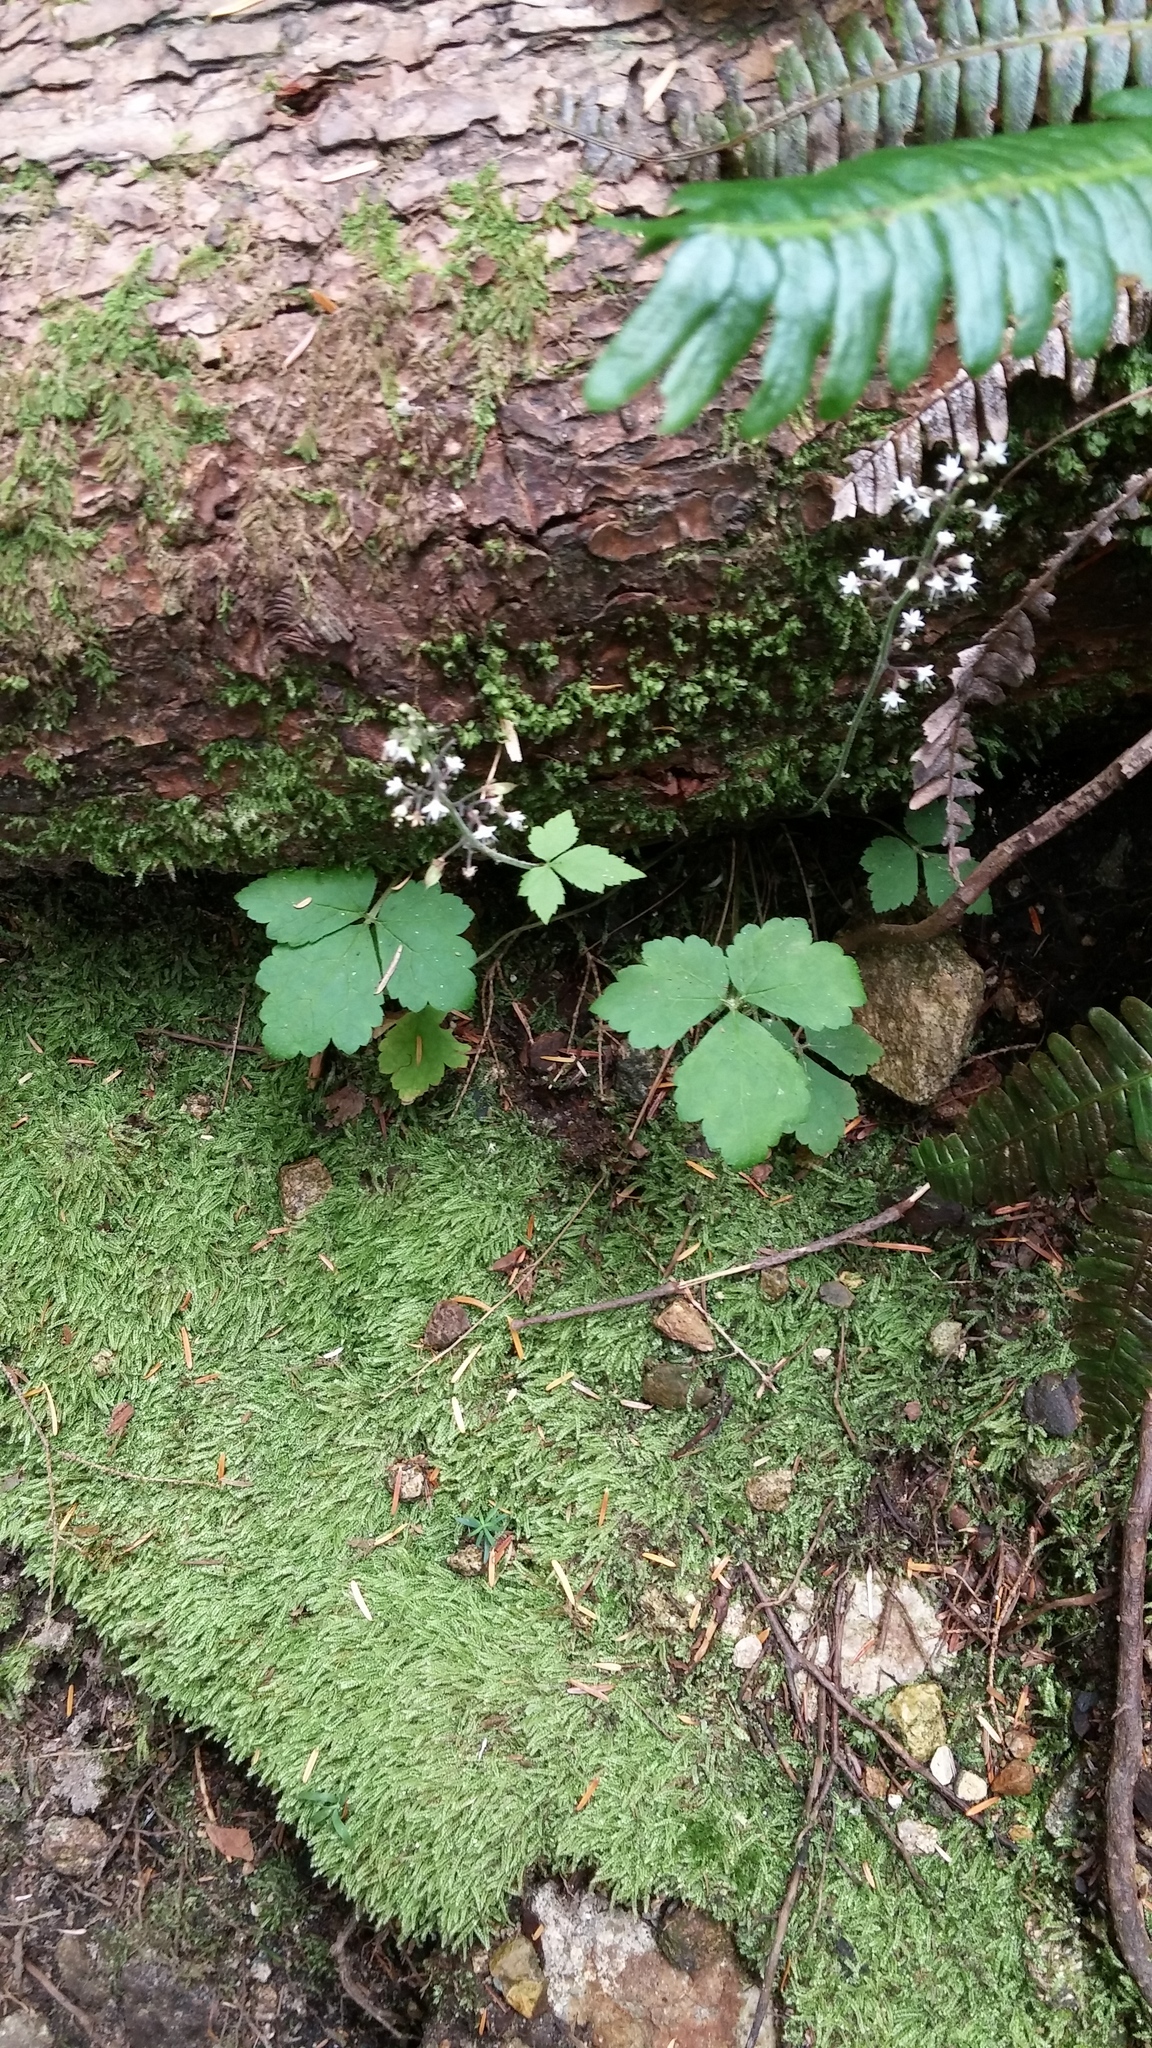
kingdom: Plantae
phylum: Tracheophyta
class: Magnoliopsida
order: Saxifragales
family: Saxifragaceae
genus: Tiarella
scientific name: Tiarella trifoliata
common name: Sugar-scoop
